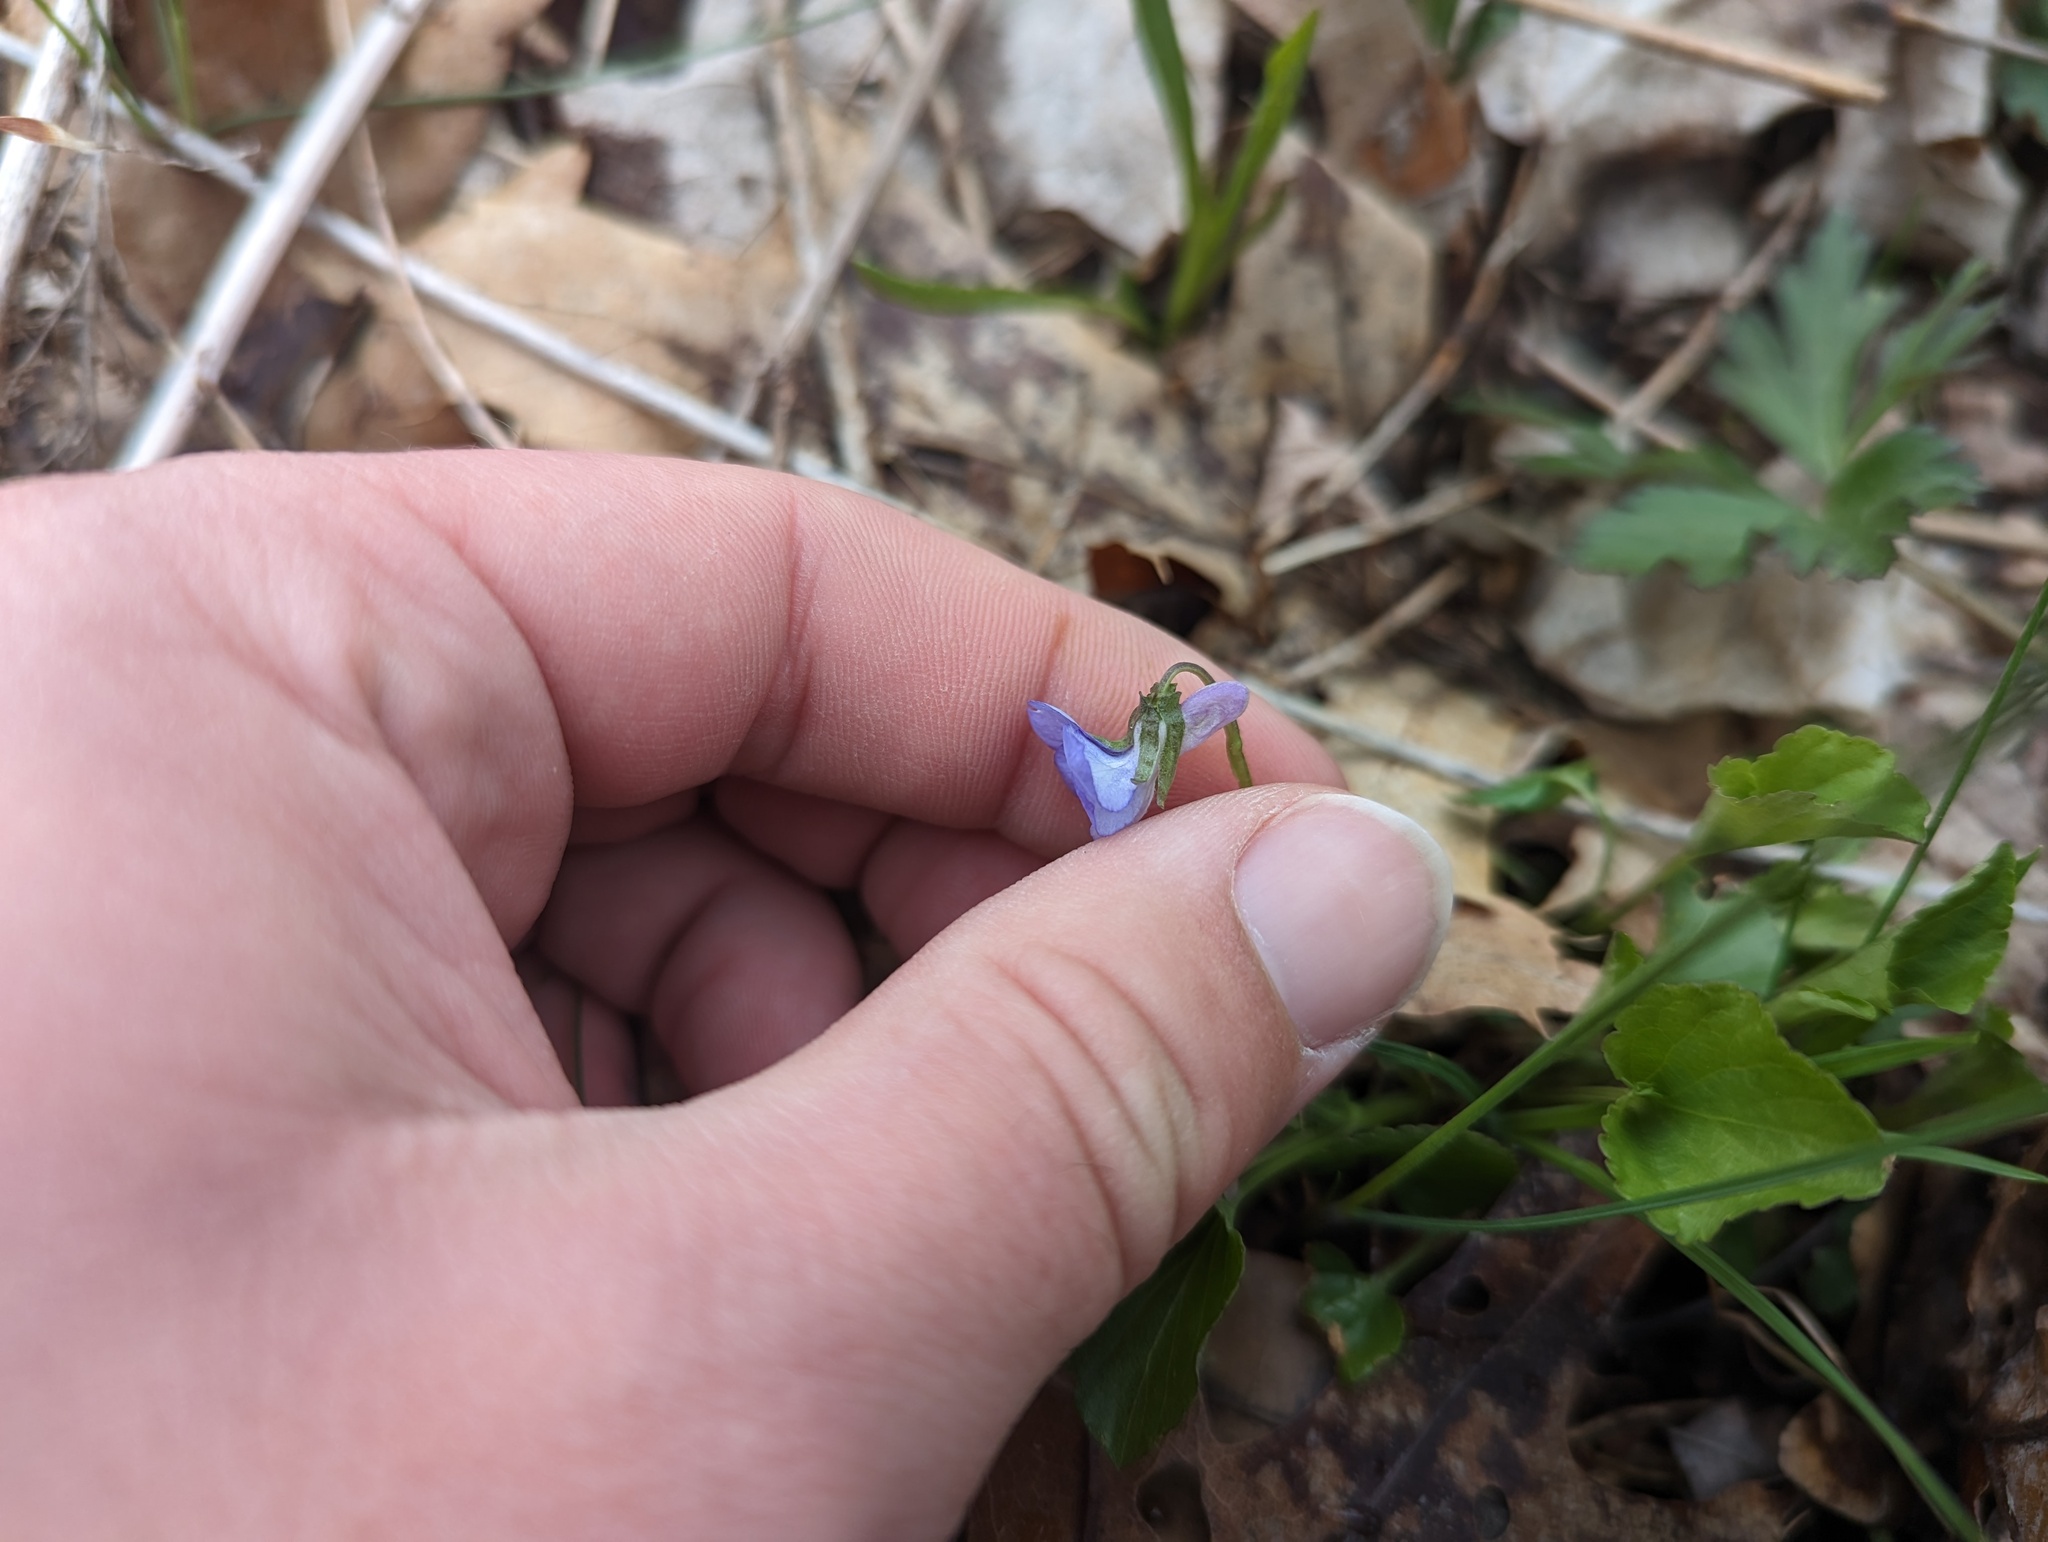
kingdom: Plantae
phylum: Tracheophyta
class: Magnoliopsida
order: Malpighiales
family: Violaceae
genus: Viola
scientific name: Viola labradorica
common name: Labrador violet
